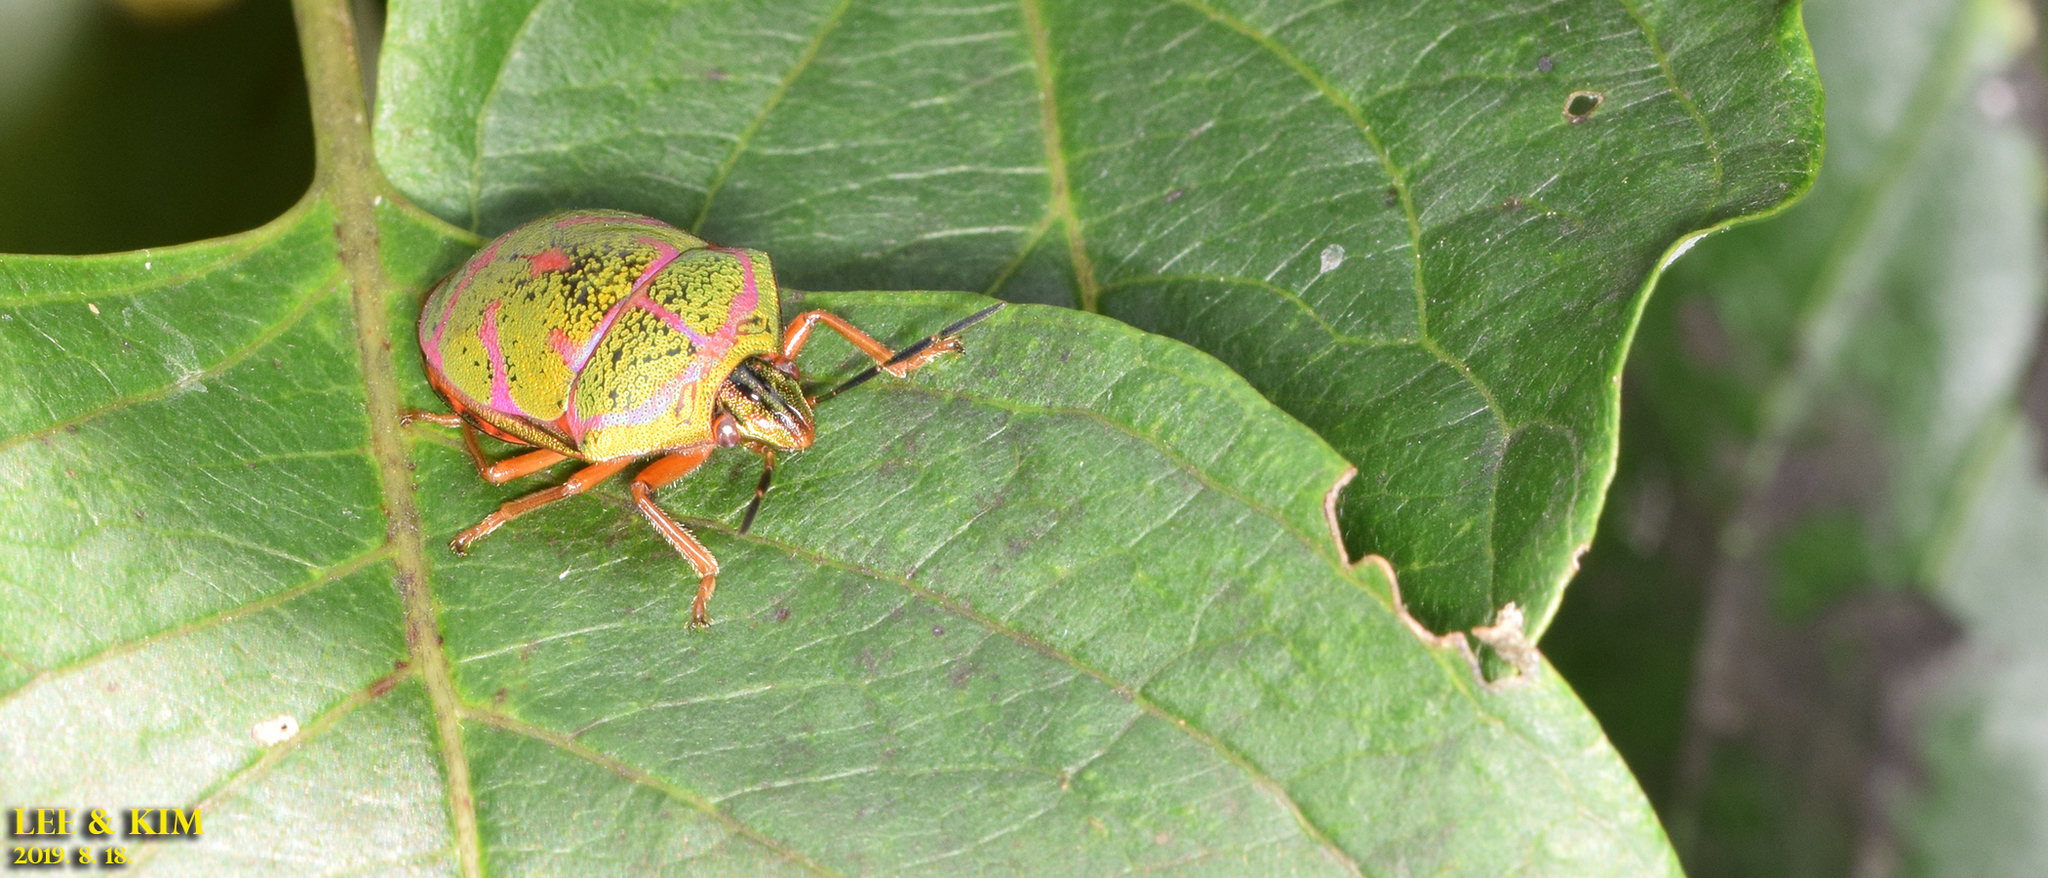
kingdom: Animalia
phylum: Arthropoda
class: Insecta
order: Hemiptera
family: Scutelleridae
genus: Poecilocoris
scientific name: Poecilocoris lewisi
